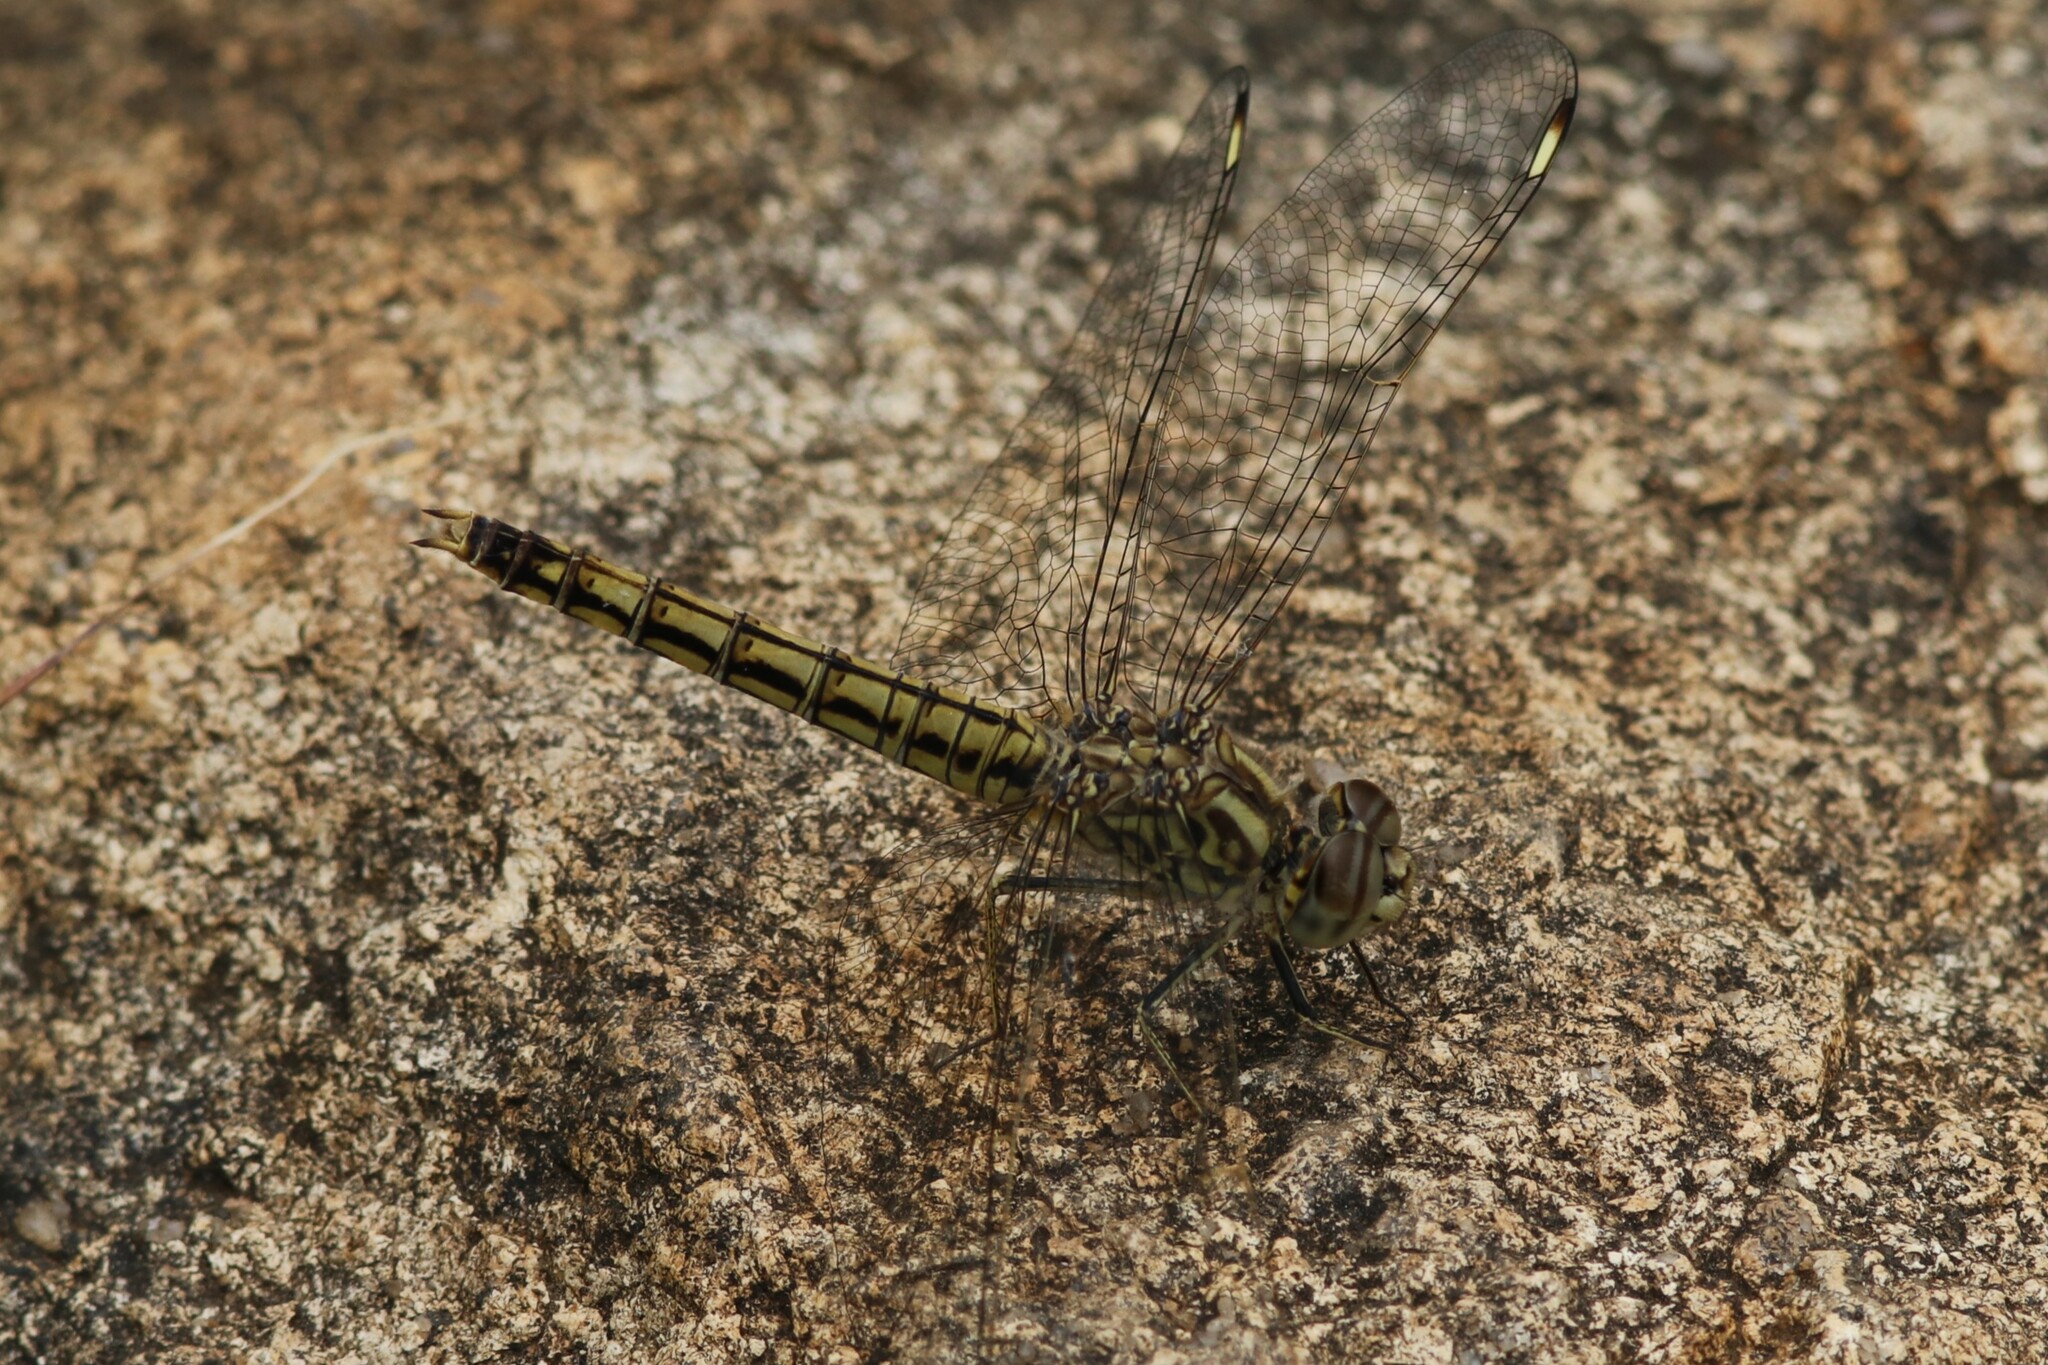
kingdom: Animalia
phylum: Arthropoda
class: Insecta
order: Odonata
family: Libellulidae
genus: Brachythemis
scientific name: Brachythemis leucosticta
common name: Banded groundling
